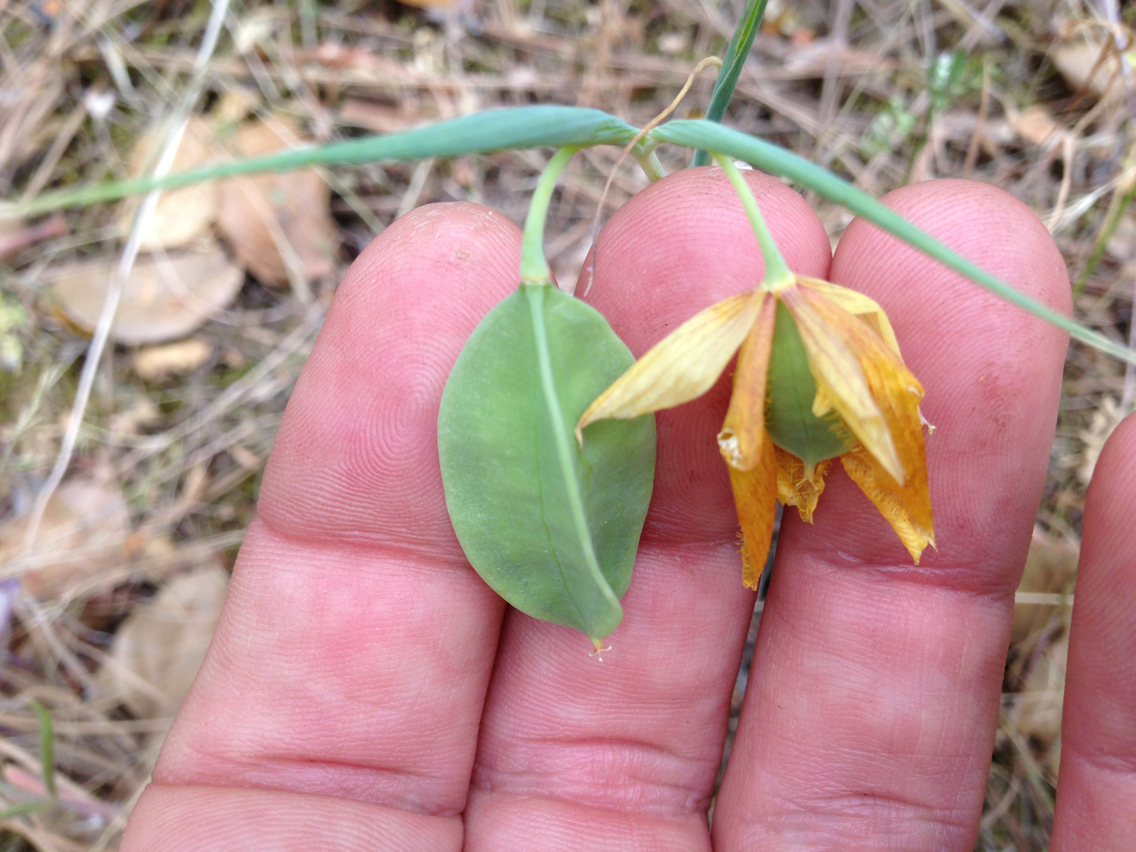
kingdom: Plantae
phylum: Tracheophyta
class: Liliopsida
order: Liliales
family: Liliaceae
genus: Calochortus
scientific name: Calochortus pulchellus
